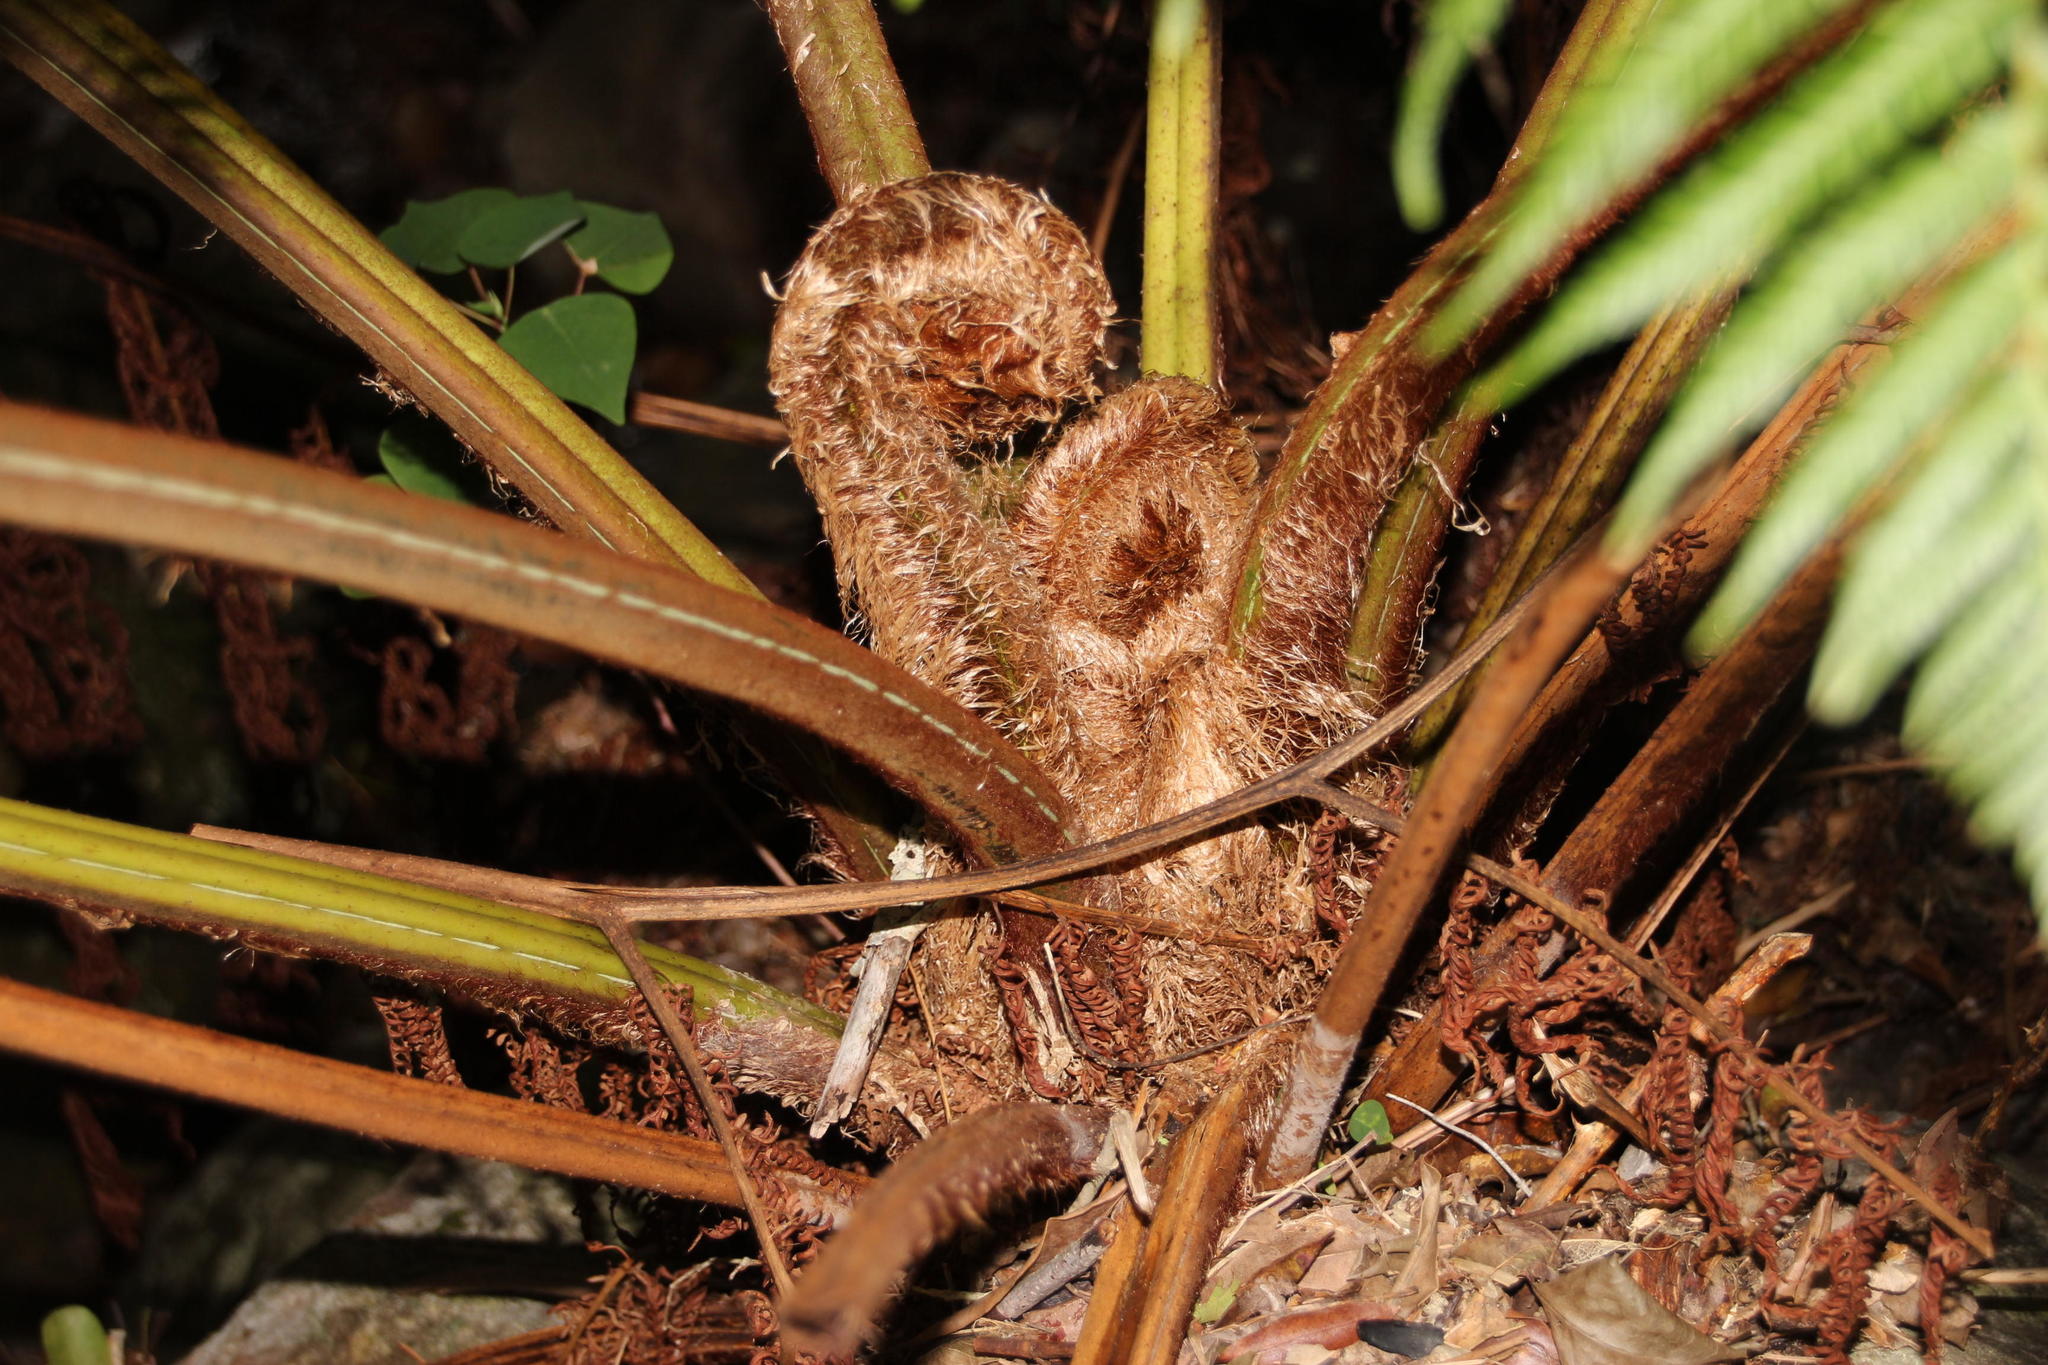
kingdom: Plantae
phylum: Tracheophyta
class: Polypodiopsida
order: Cyatheales
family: Cyatheaceae
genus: Sphaeropteris
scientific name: Sphaeropteris cooperi
